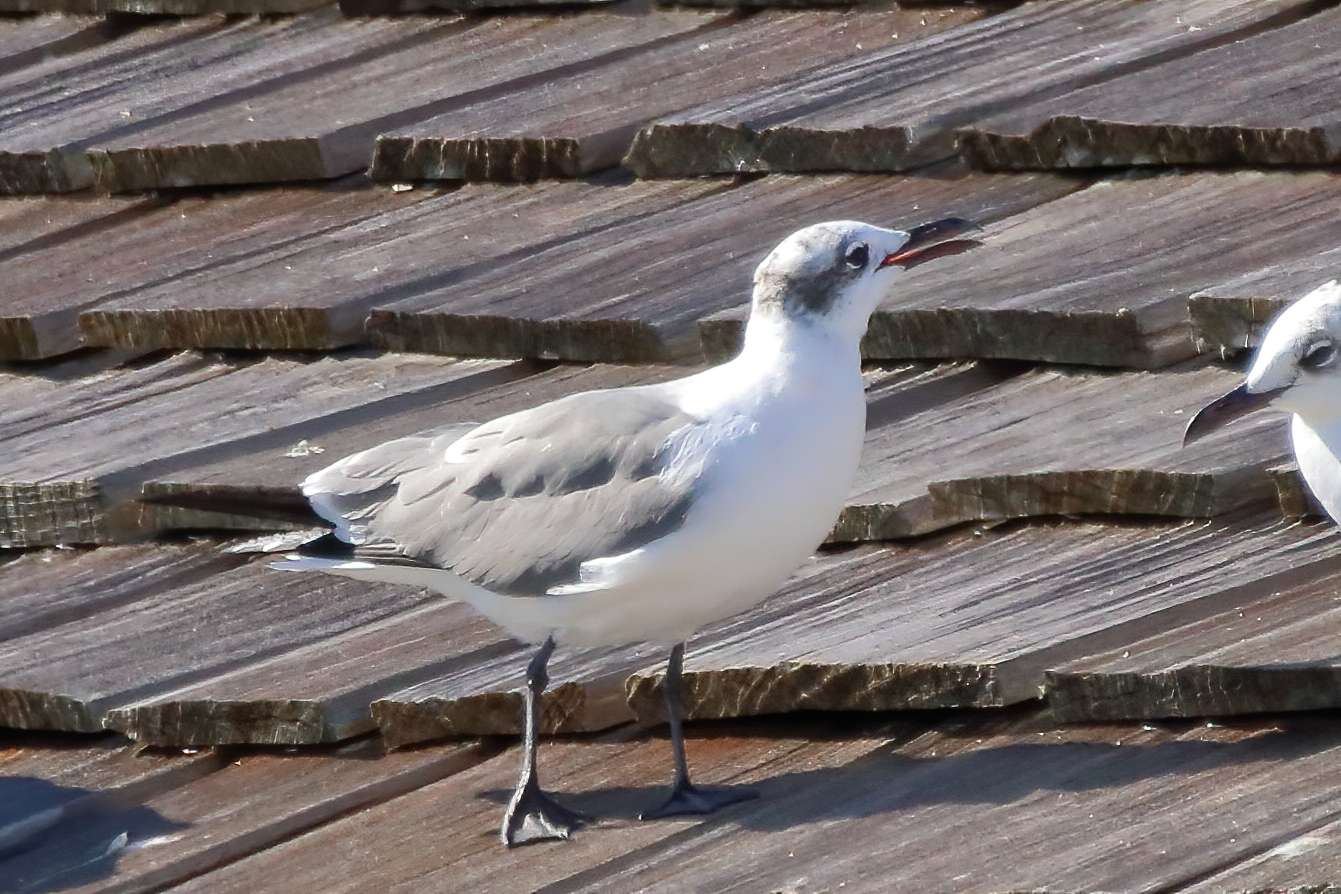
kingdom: Animalia
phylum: Chordata
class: Aves
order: Charadriiformes
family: Laridae
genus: Leucophaeus
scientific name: Leucophaeus atricilla
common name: Laughing gull
